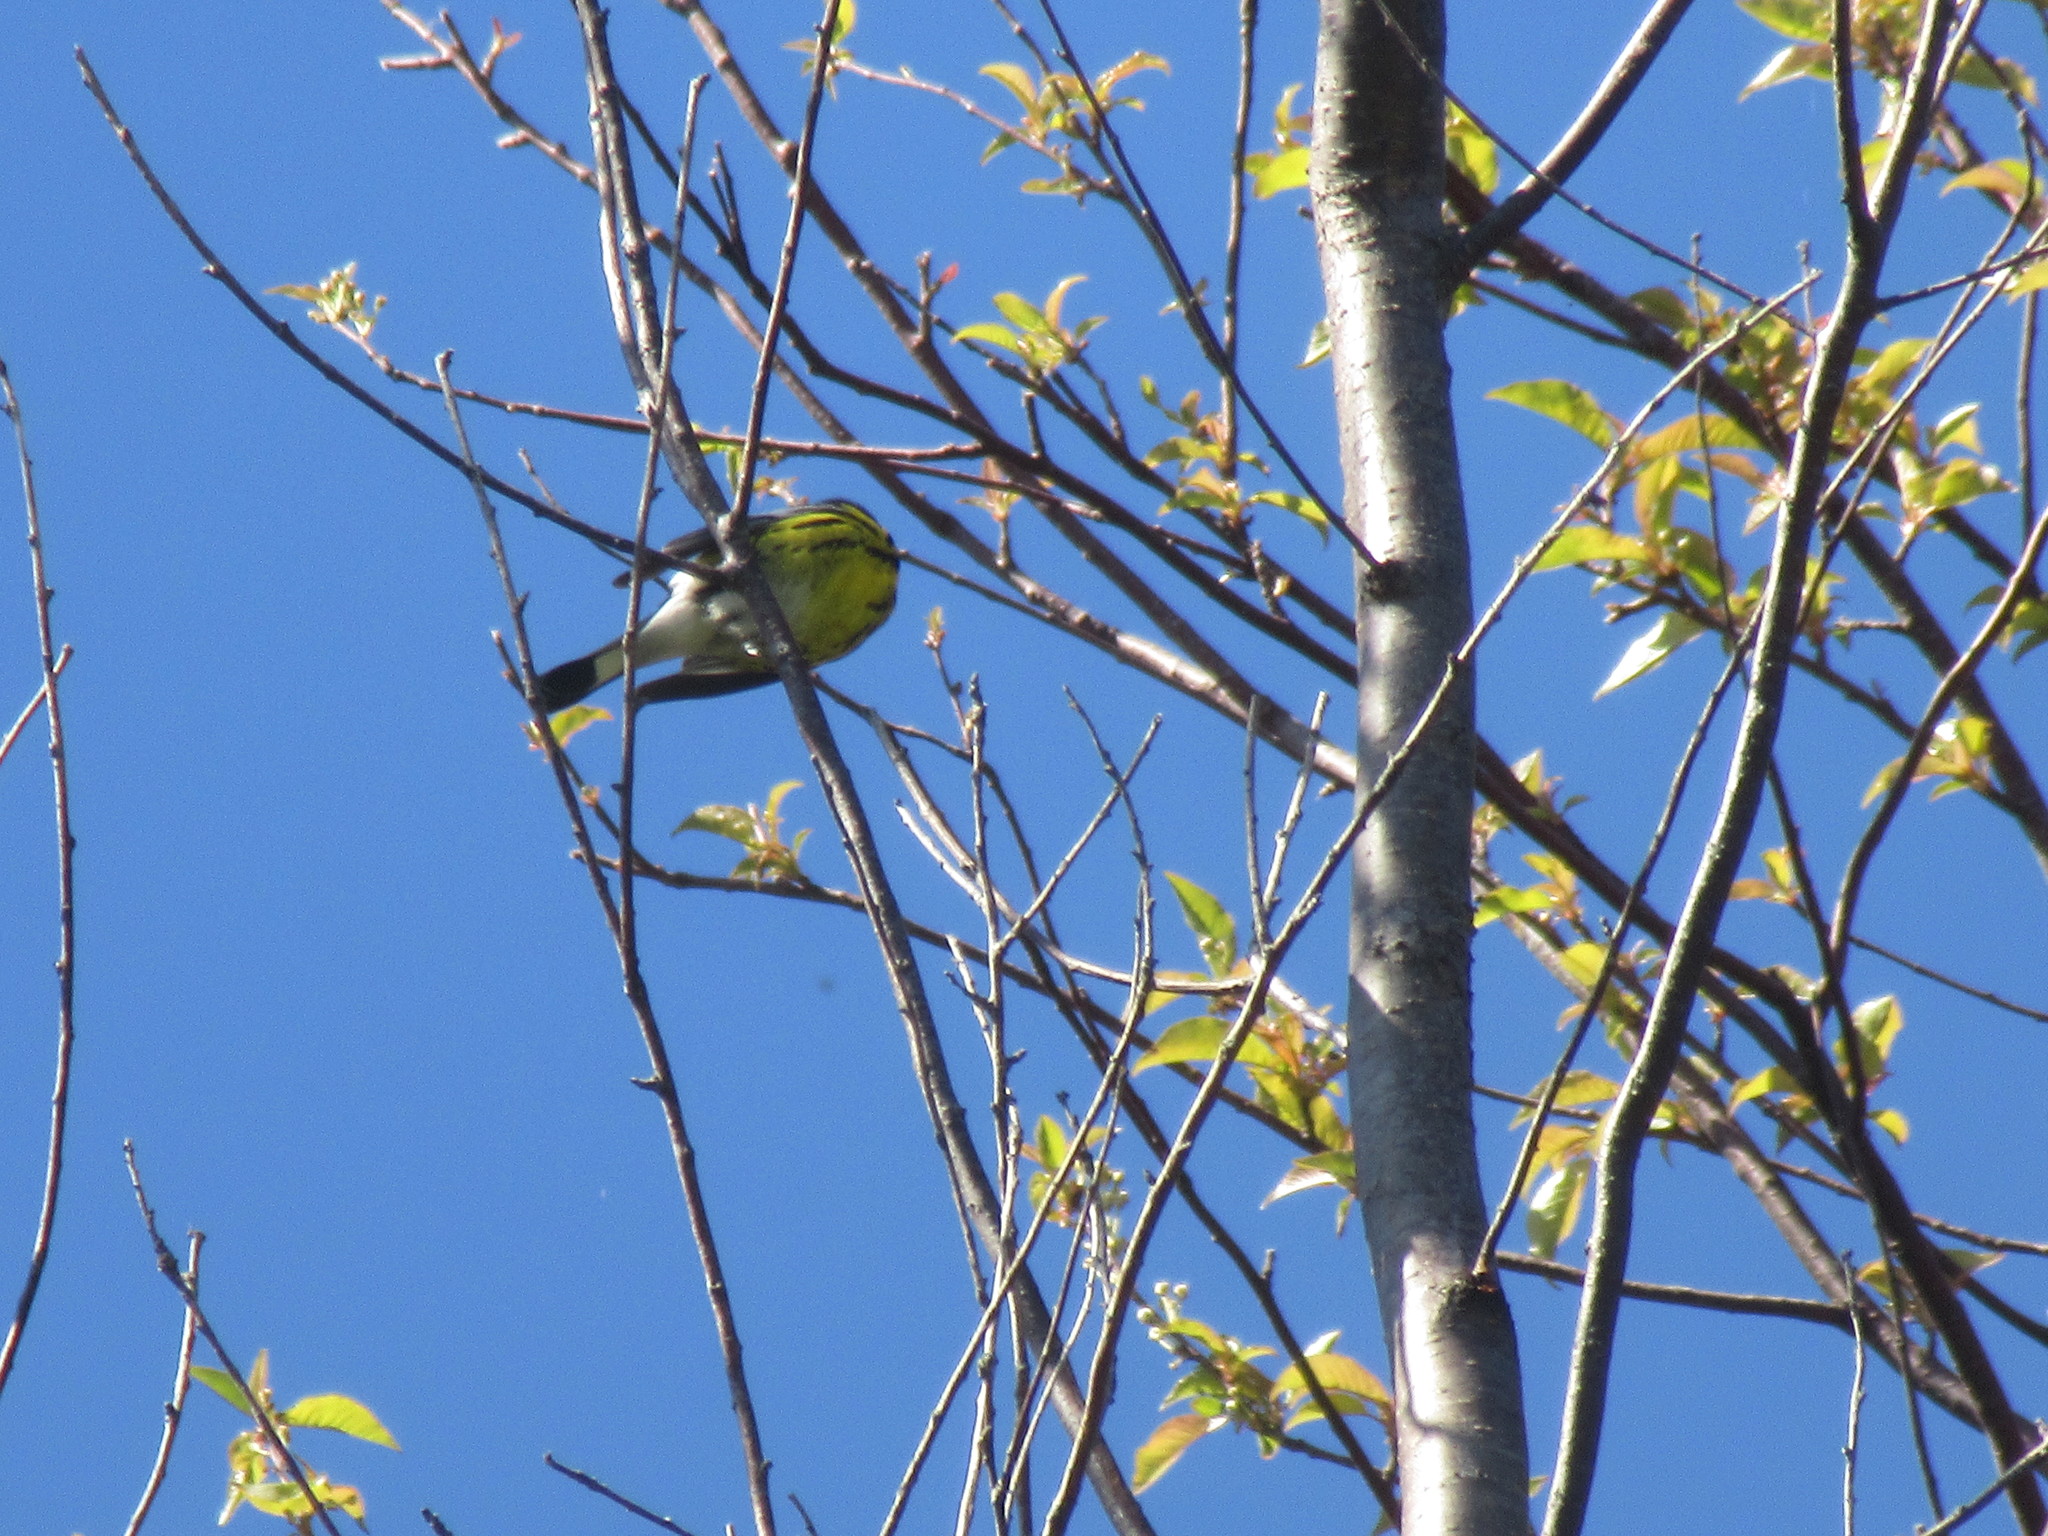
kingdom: Animalia
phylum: Chordata
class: Aves
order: Passeriformes
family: Parulidae
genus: Setophaga
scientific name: Setophaga magnolia
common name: Magnolia warbler
